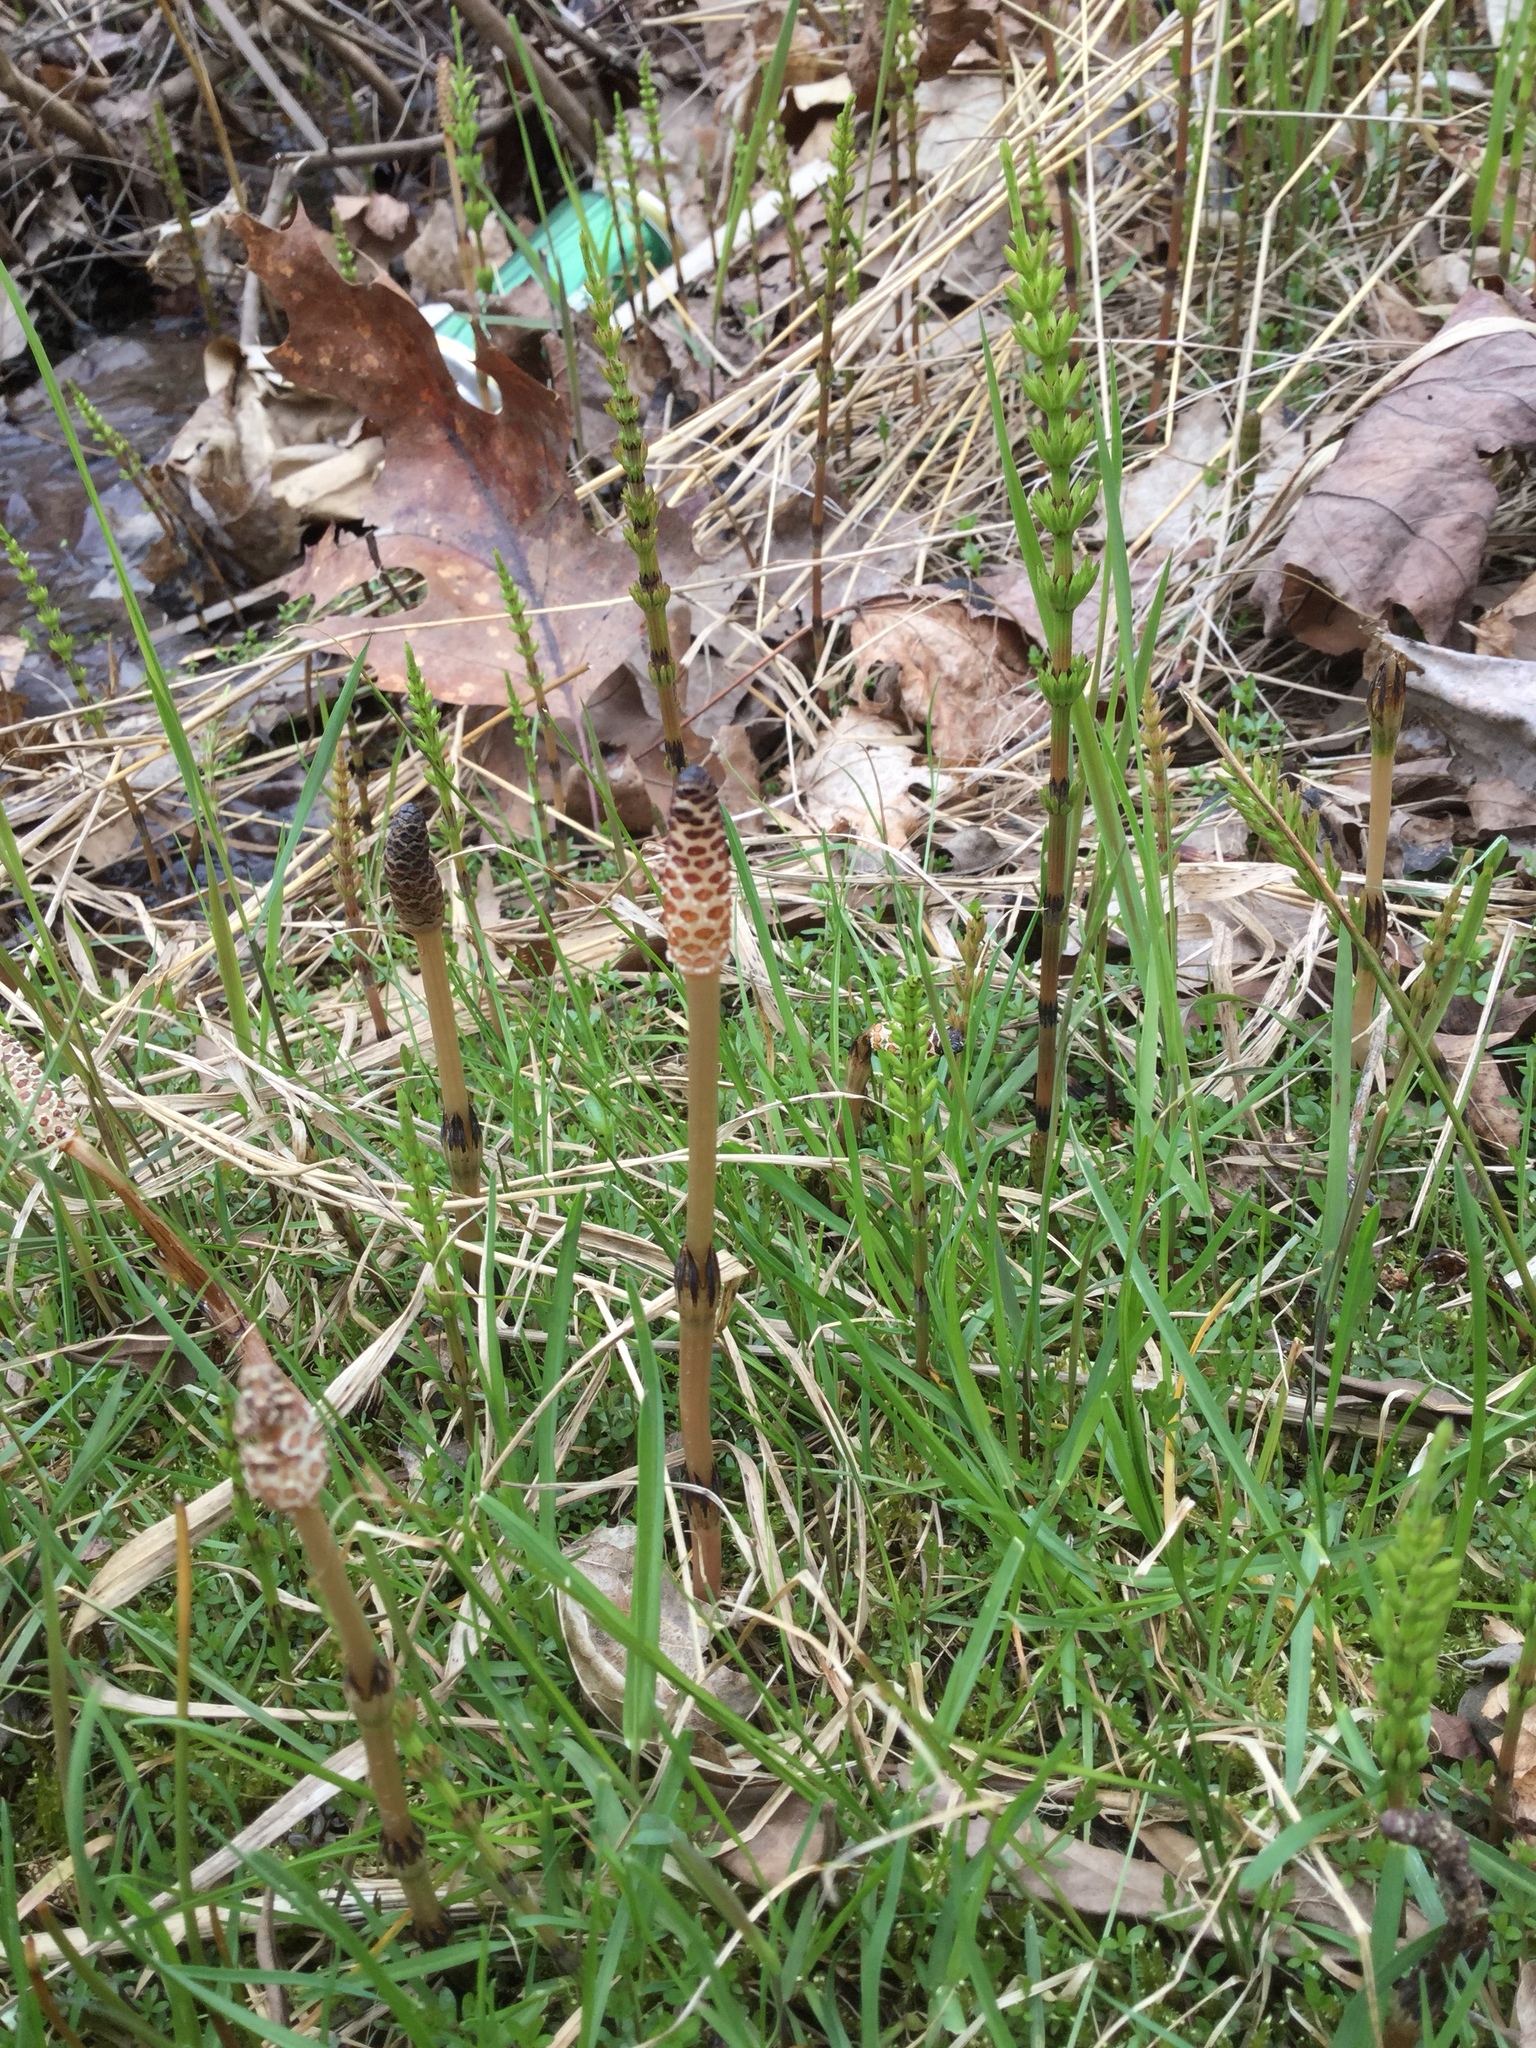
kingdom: Plantae
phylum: Tracheophyta
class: Polypodiopsida
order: Equisetales
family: Equisetaceae
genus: Equisetum
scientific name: Equisetum arvense
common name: Field horsetail
